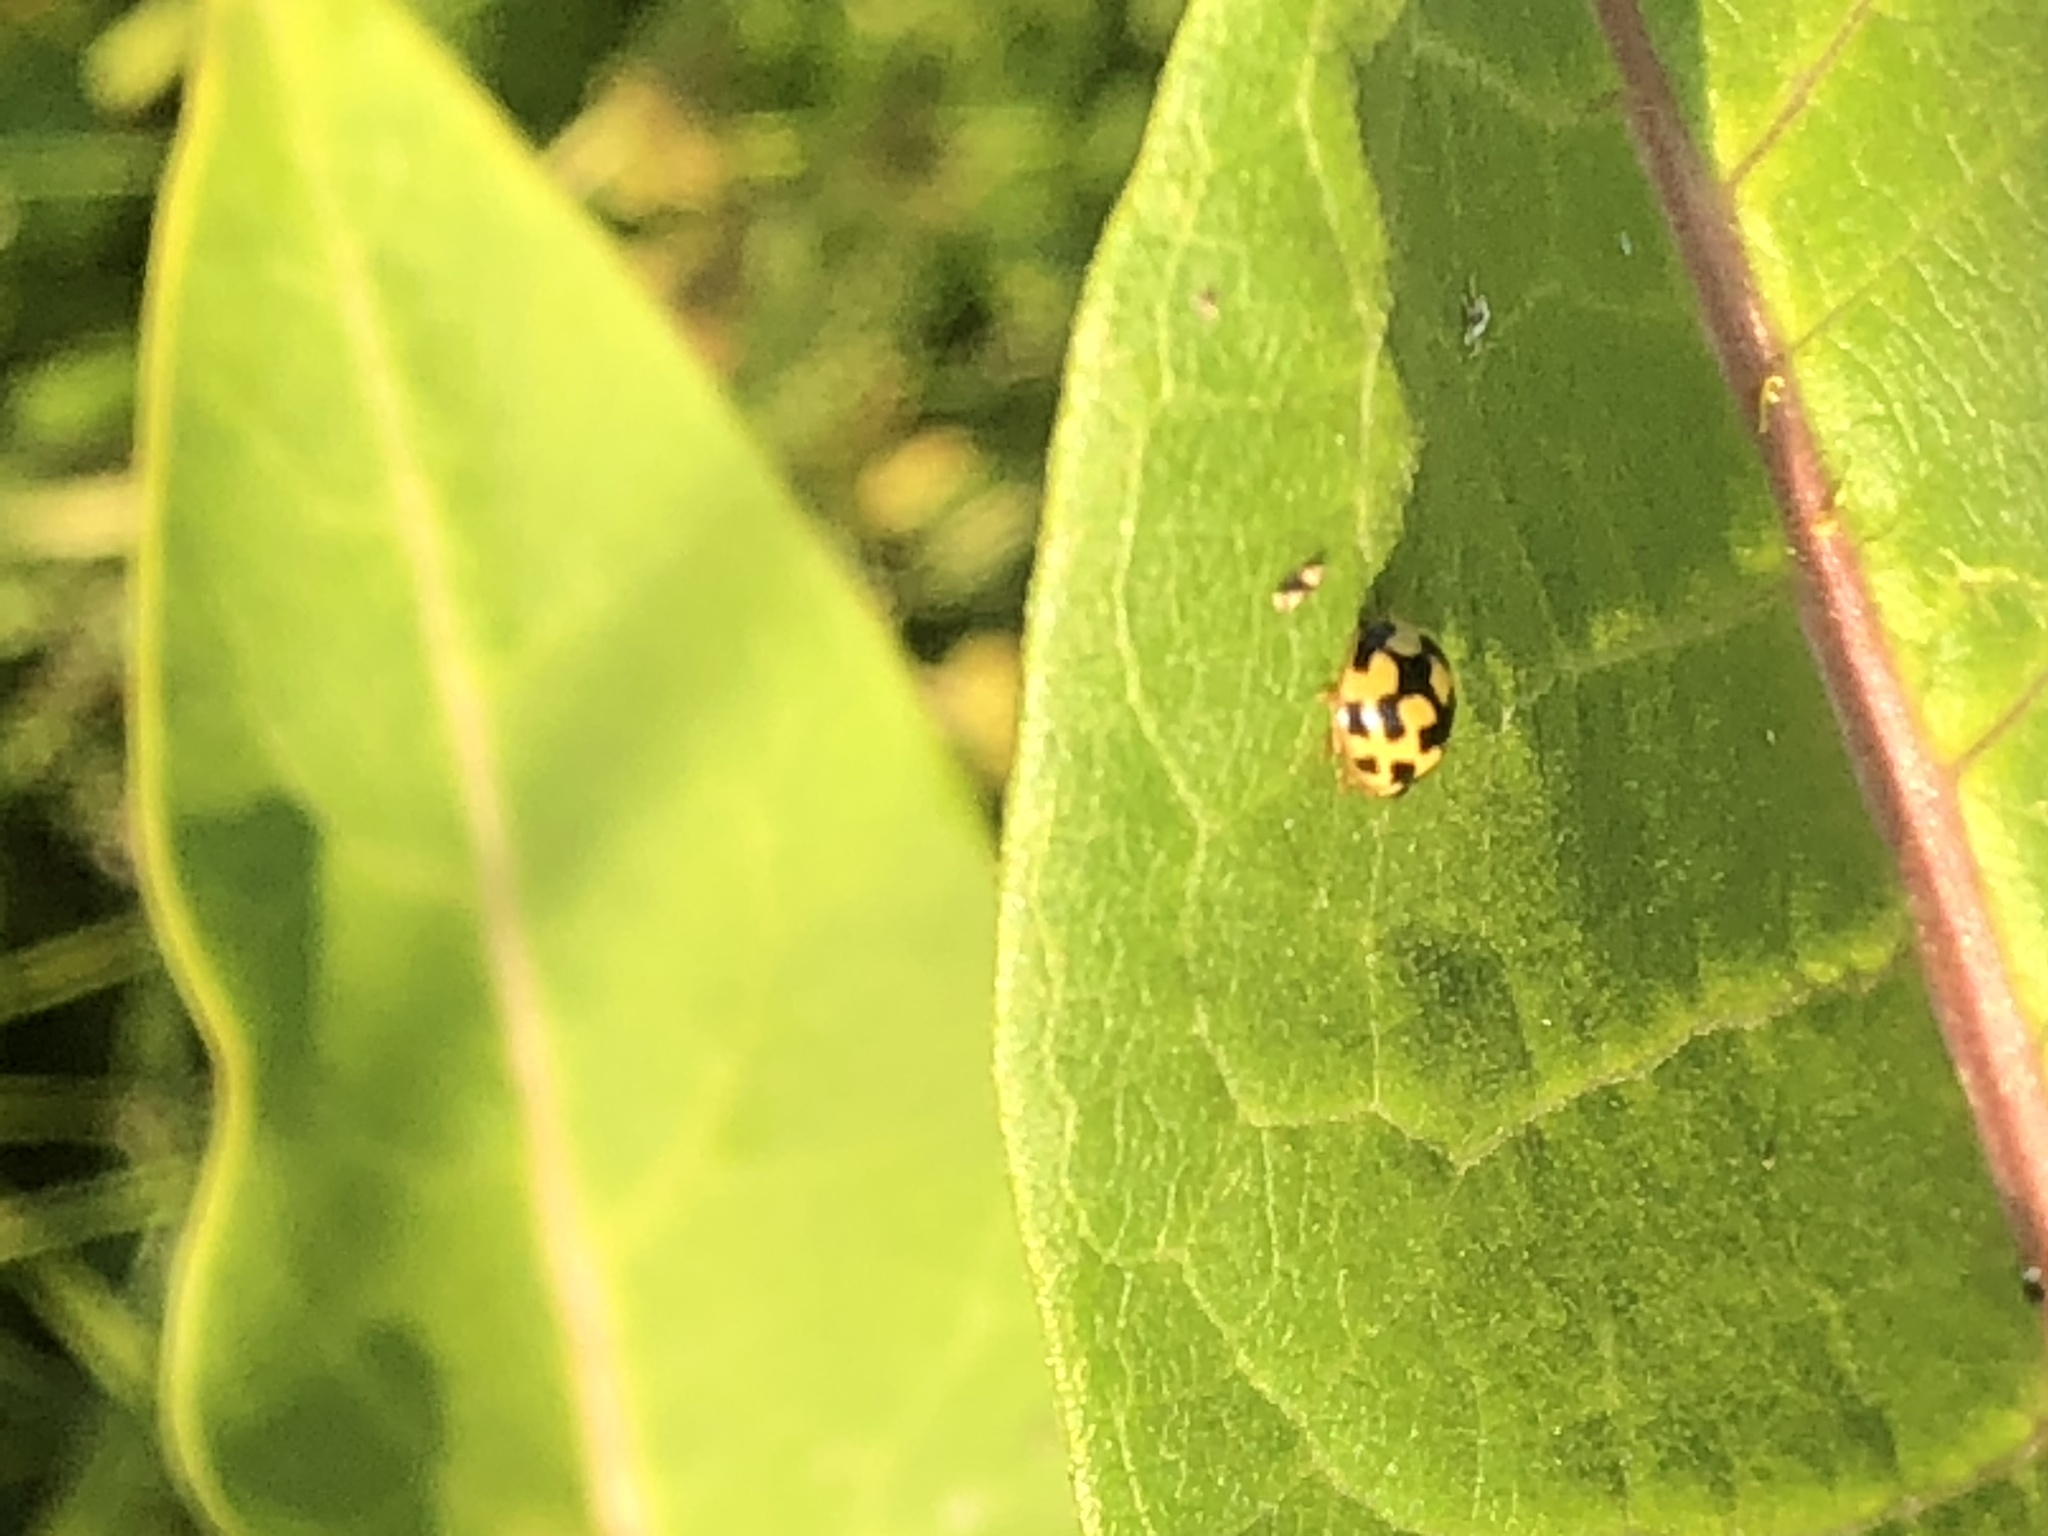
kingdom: Animalia
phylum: Arthropoda
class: Insecta
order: Coleoptera
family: Coccinellidae
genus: Propylaea
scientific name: Propylaea quatuordecimpunctata
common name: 14-spotted ladybird beetle
